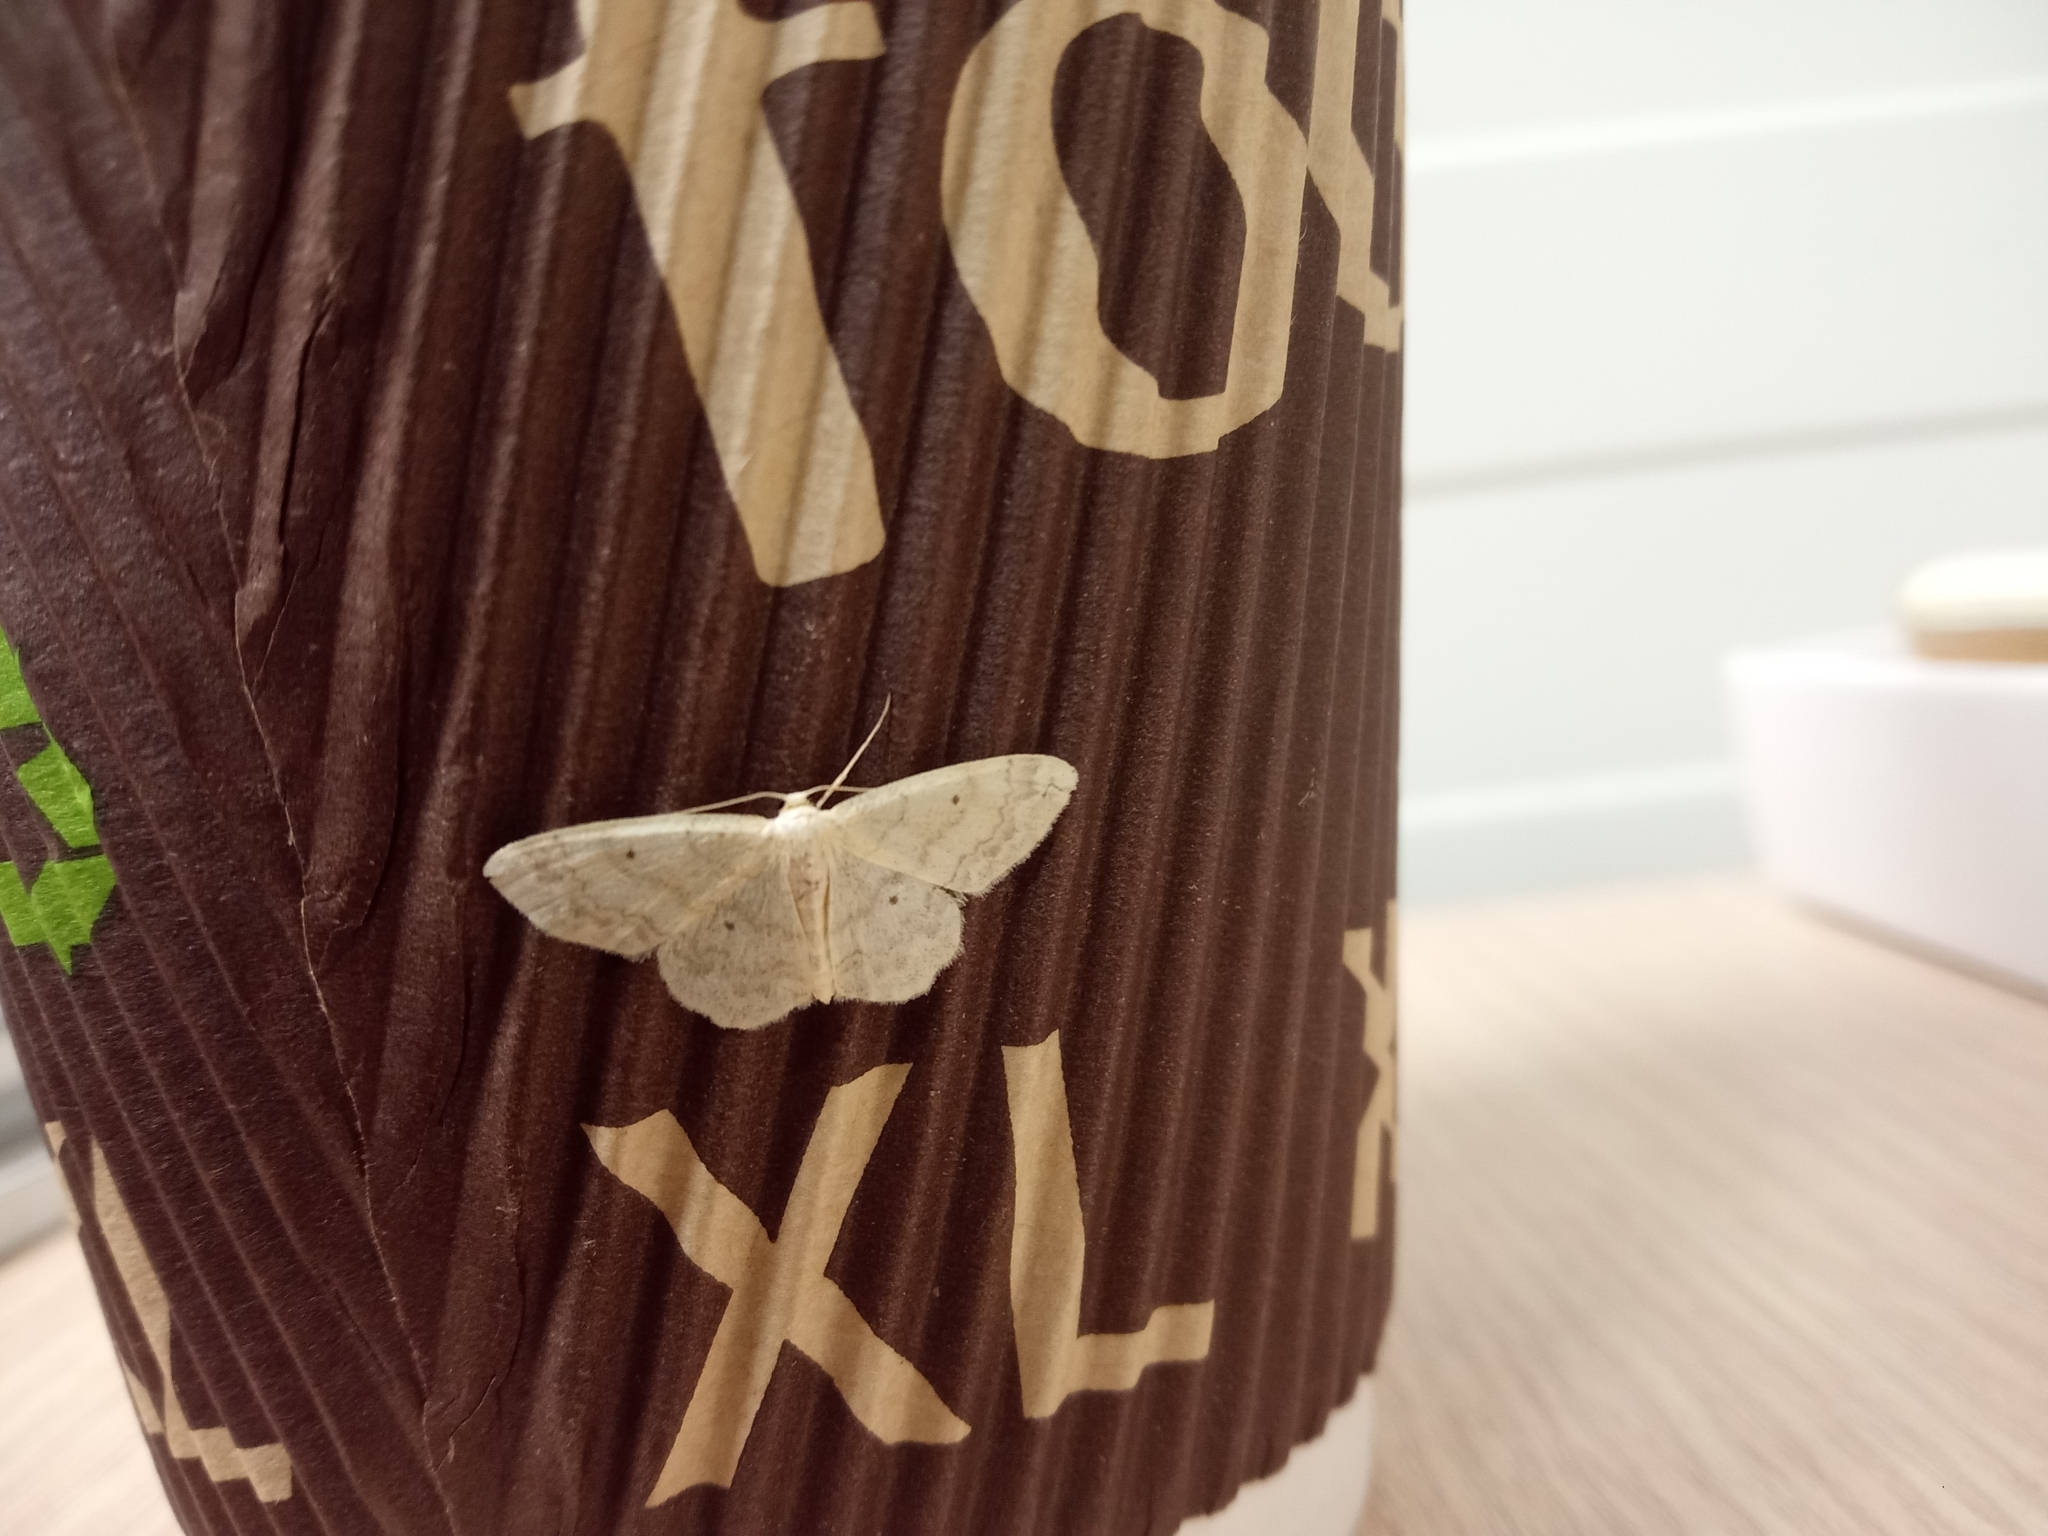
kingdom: Animalia
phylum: Arthropoda
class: Insecta
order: Lepidoptera
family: Geometridae
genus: Idaea
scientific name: Idaea biselata
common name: Small fan-footed wave
